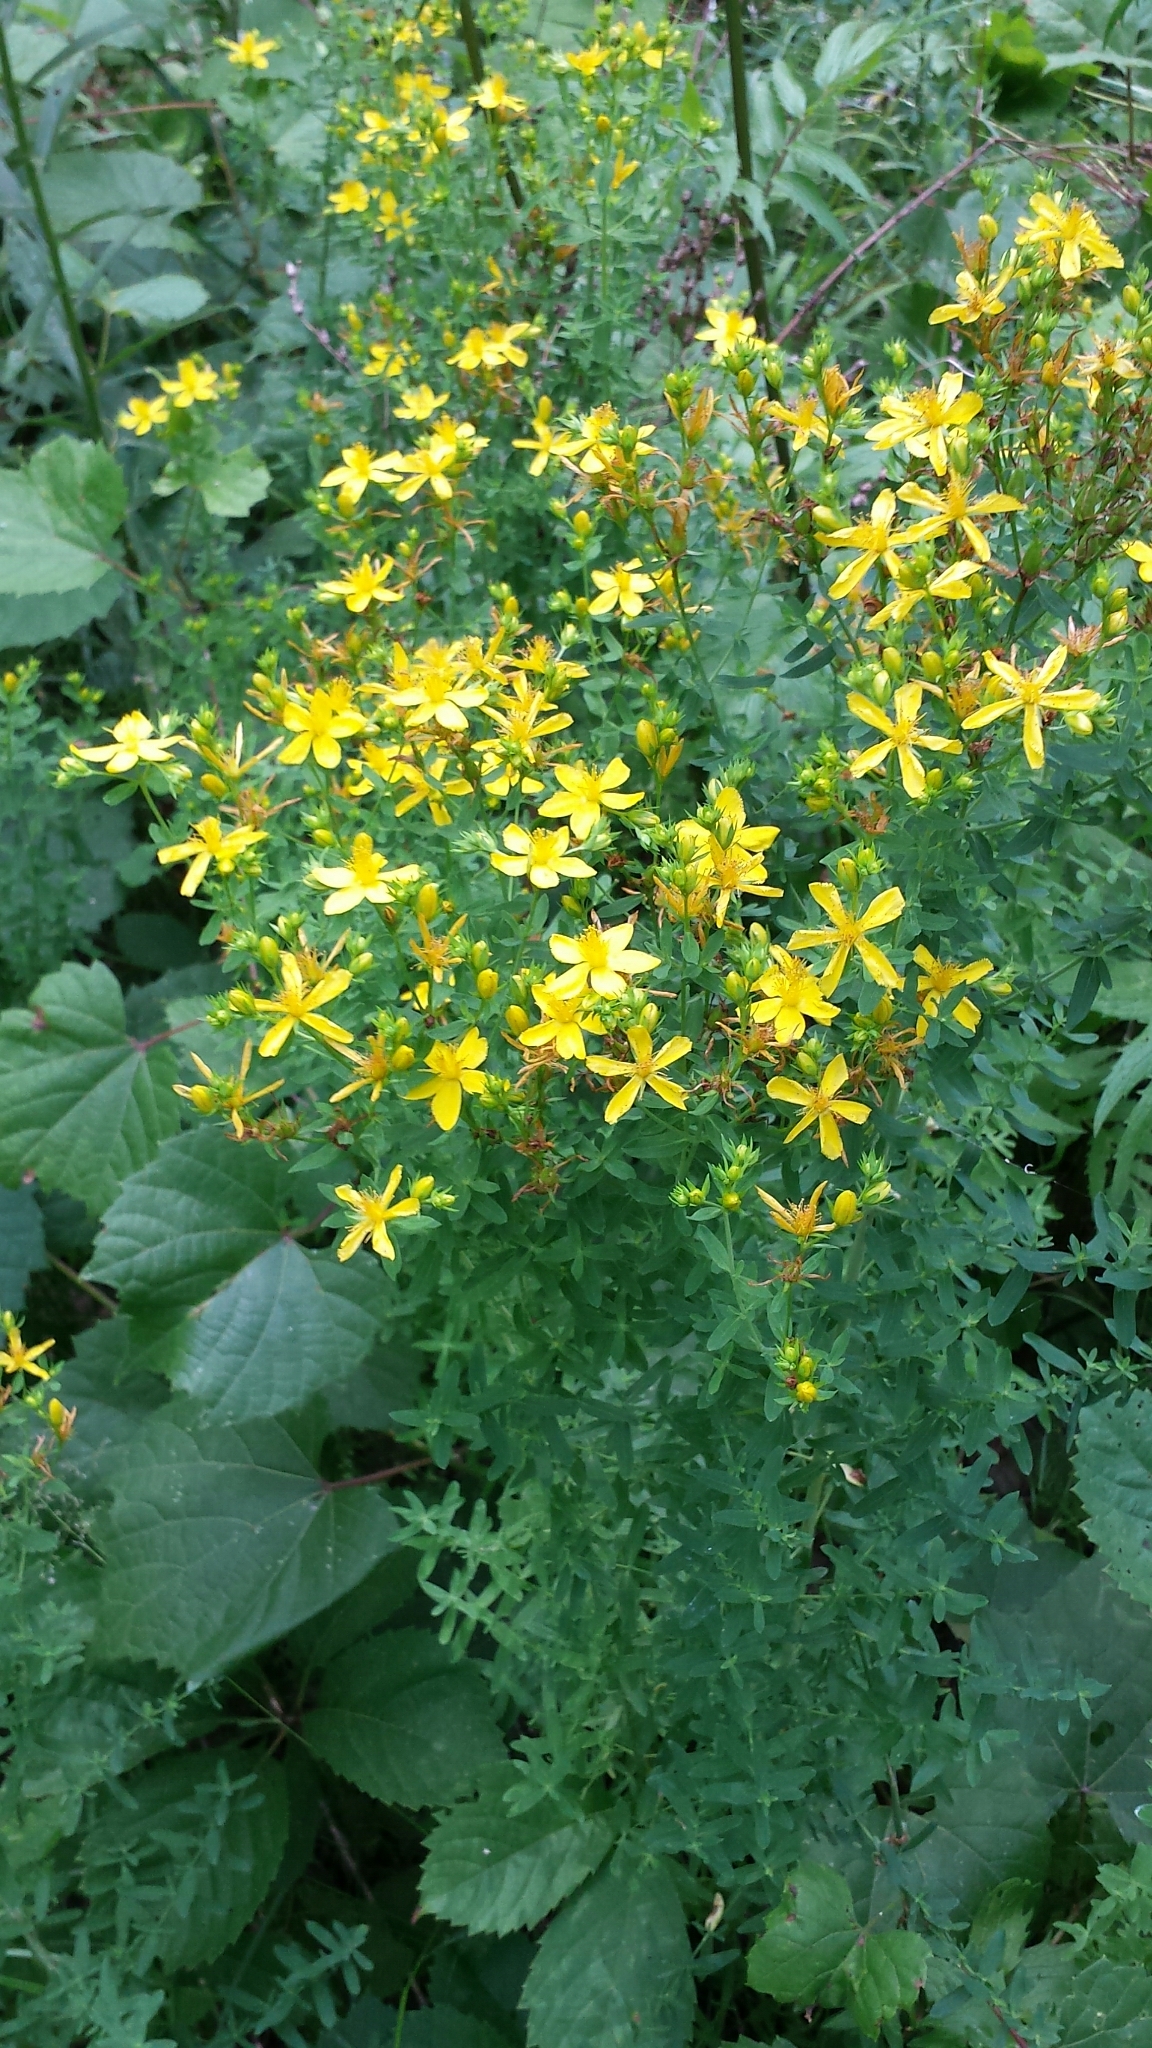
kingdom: Plantae
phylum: Tracheophyta
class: Magnoliopsida
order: Malpighiales
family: Hypericaceae
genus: Hypericum
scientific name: Hypericum perforatum
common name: Common st. johnswort
